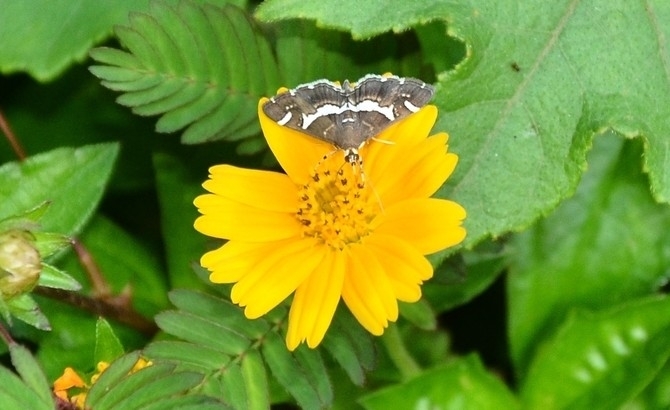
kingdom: Animalia
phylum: Arthropoda
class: Insecta
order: Lepidoptera
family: Crambidae
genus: Spoladea
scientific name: Spoladea recurvalis
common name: Beet webworm moth
